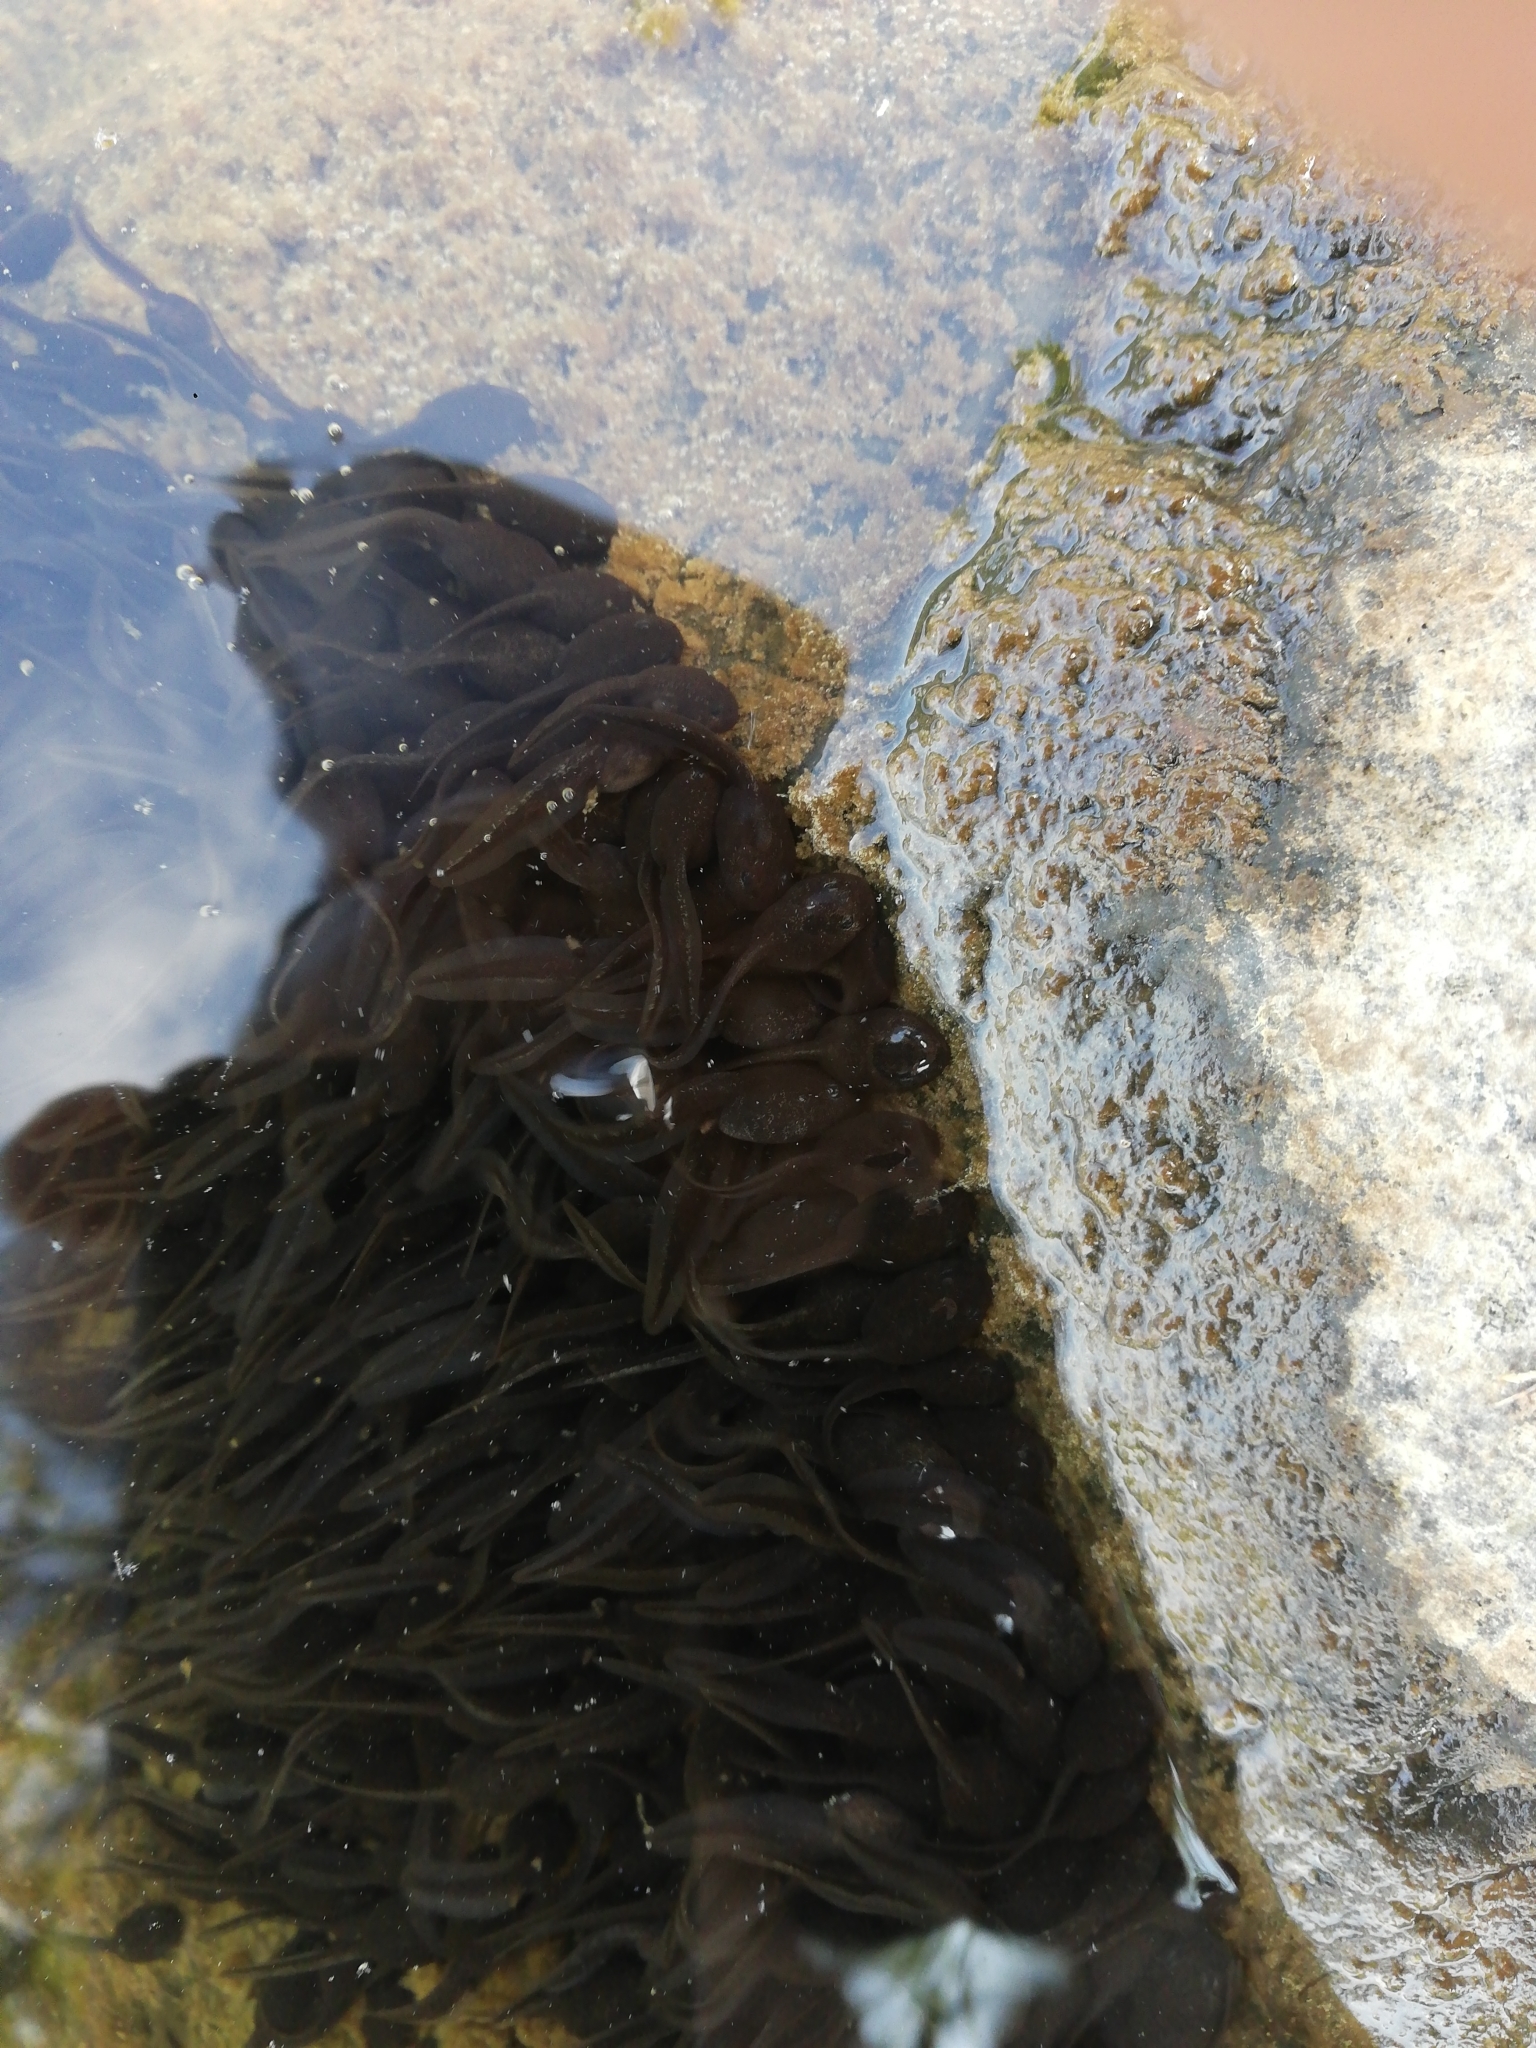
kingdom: Animalia
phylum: Chordata
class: Amphibia
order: Anura
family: Bufonidae
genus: Bufo
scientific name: Bufo bufo
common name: Common toad
